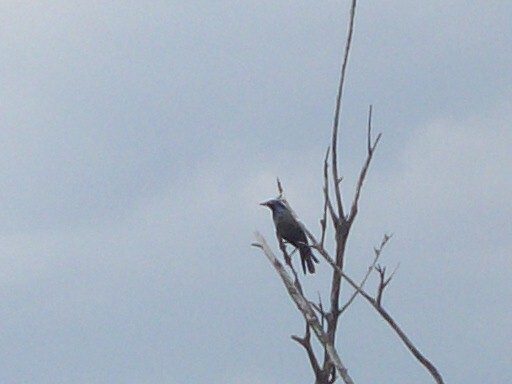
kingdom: Animalia
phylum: Chordata
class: Aves
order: Passeriformes
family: Icteridae
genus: Quiscalus
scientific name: Quiscalus quiscula
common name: Common grackle
